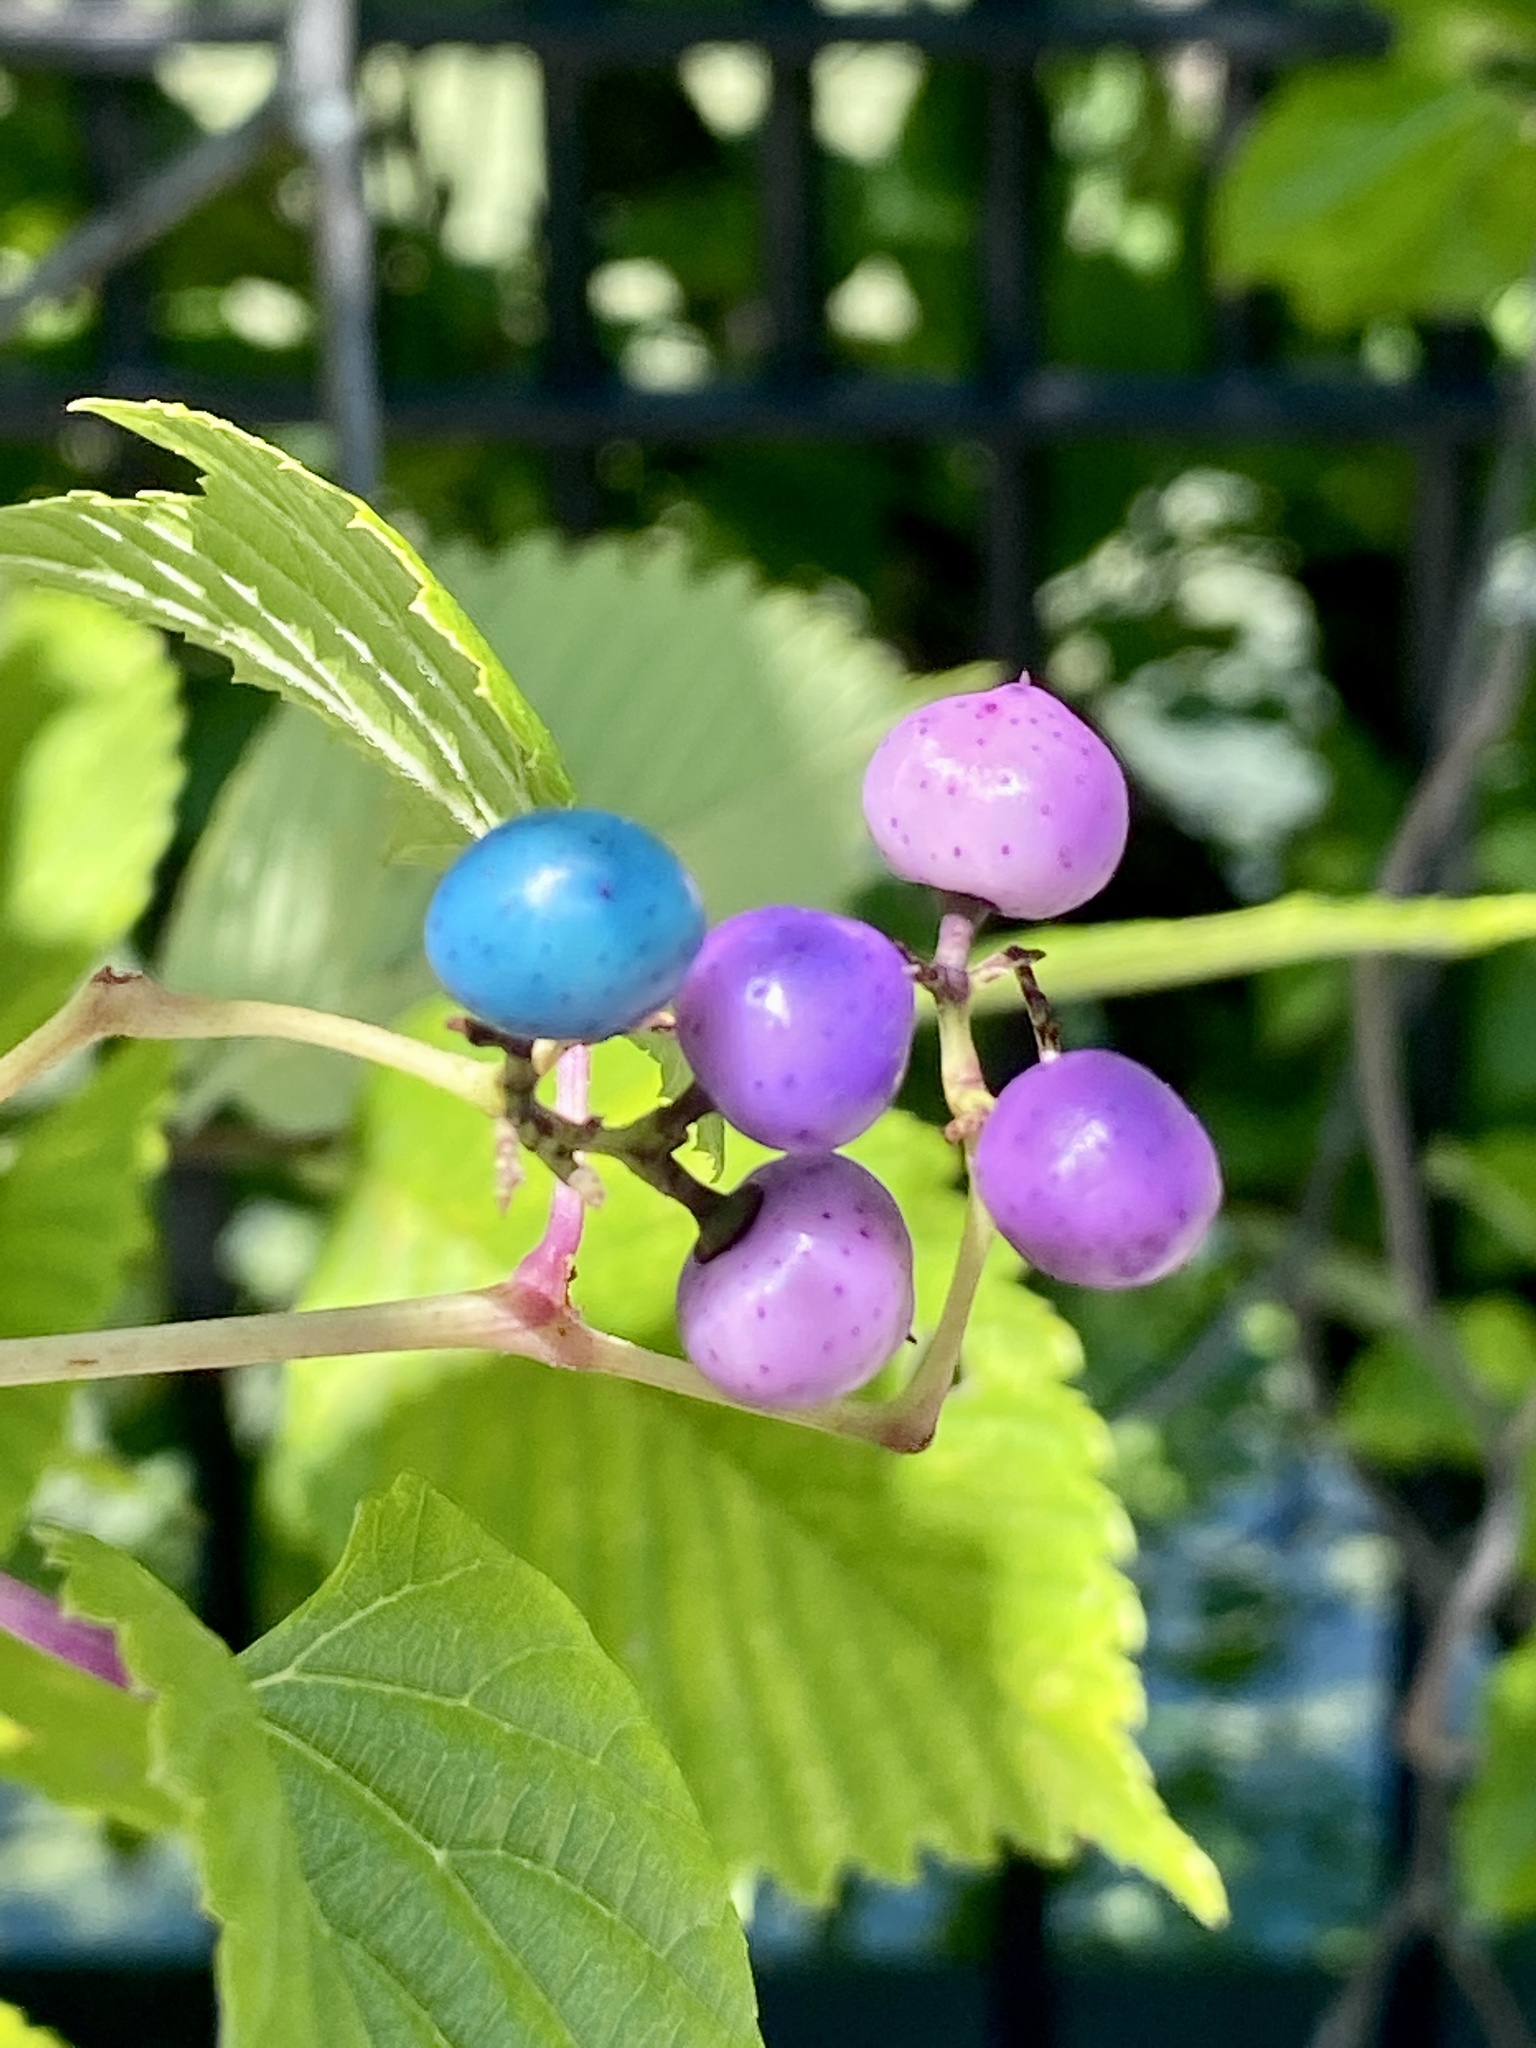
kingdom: Plantae
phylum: Tracheophyta
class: Magnoliopsida
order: Vitales
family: Vitaceae
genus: Ampelopsis
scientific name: Ampelopsis glandulosa
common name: Amur peppervine
